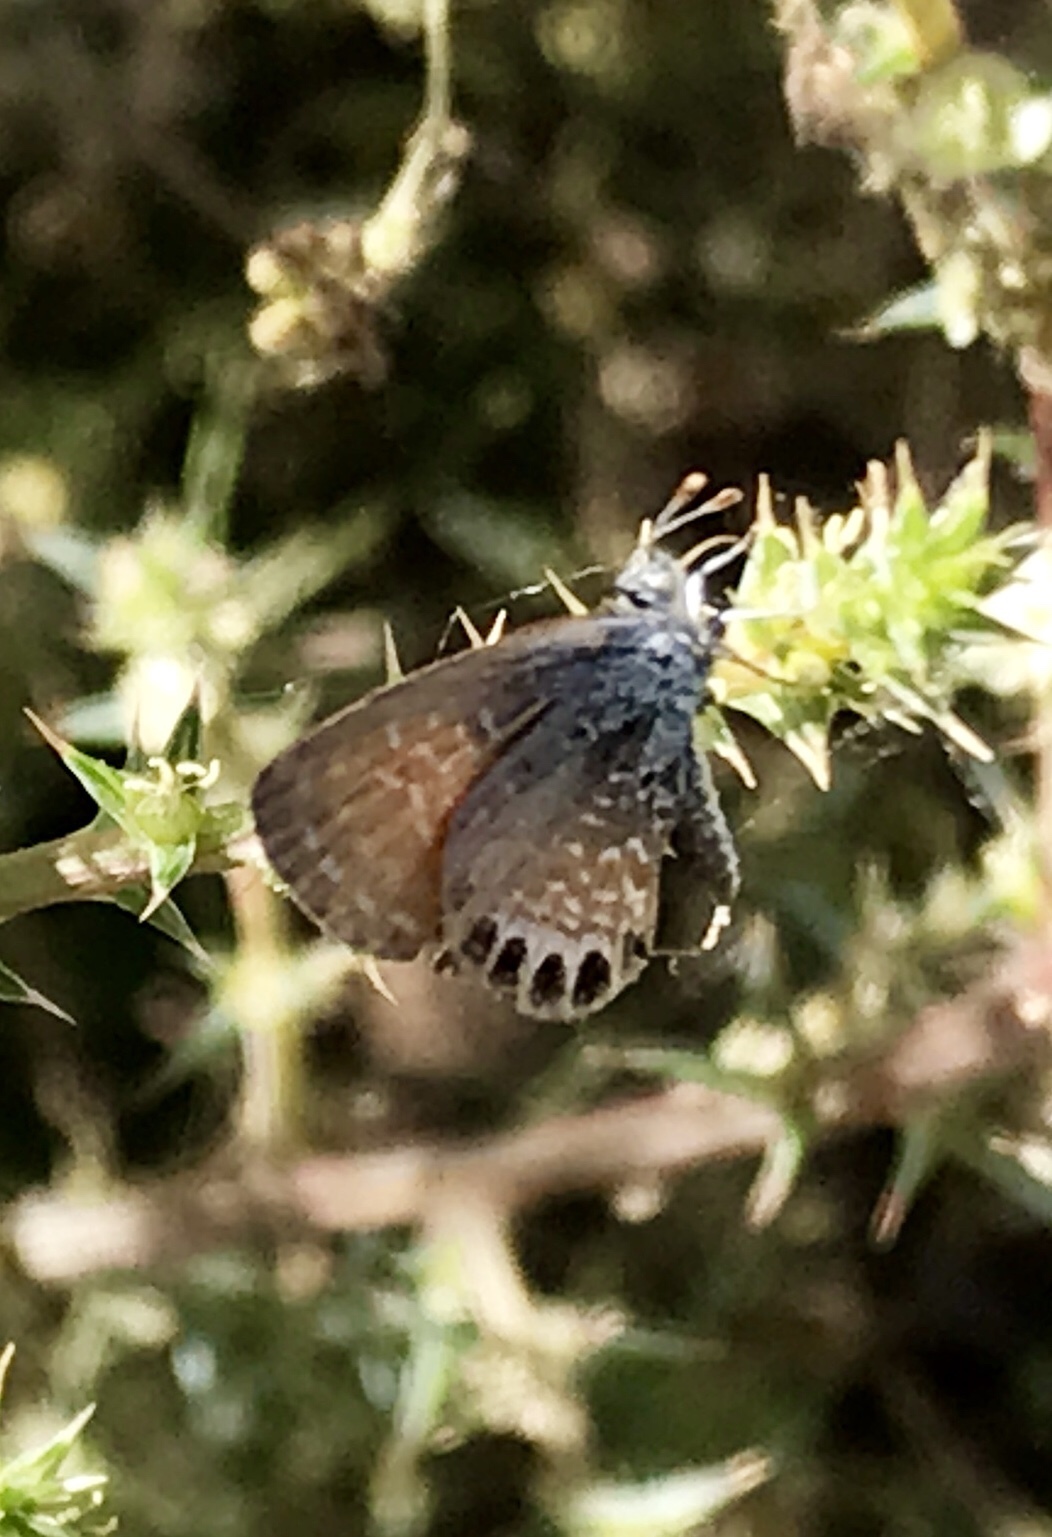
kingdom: Animalia
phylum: Arthropoda
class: Insecta
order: Lepidoptera
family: Lycaenidae
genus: Brephidium
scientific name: Brephidium exilis
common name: Pygmy blue
